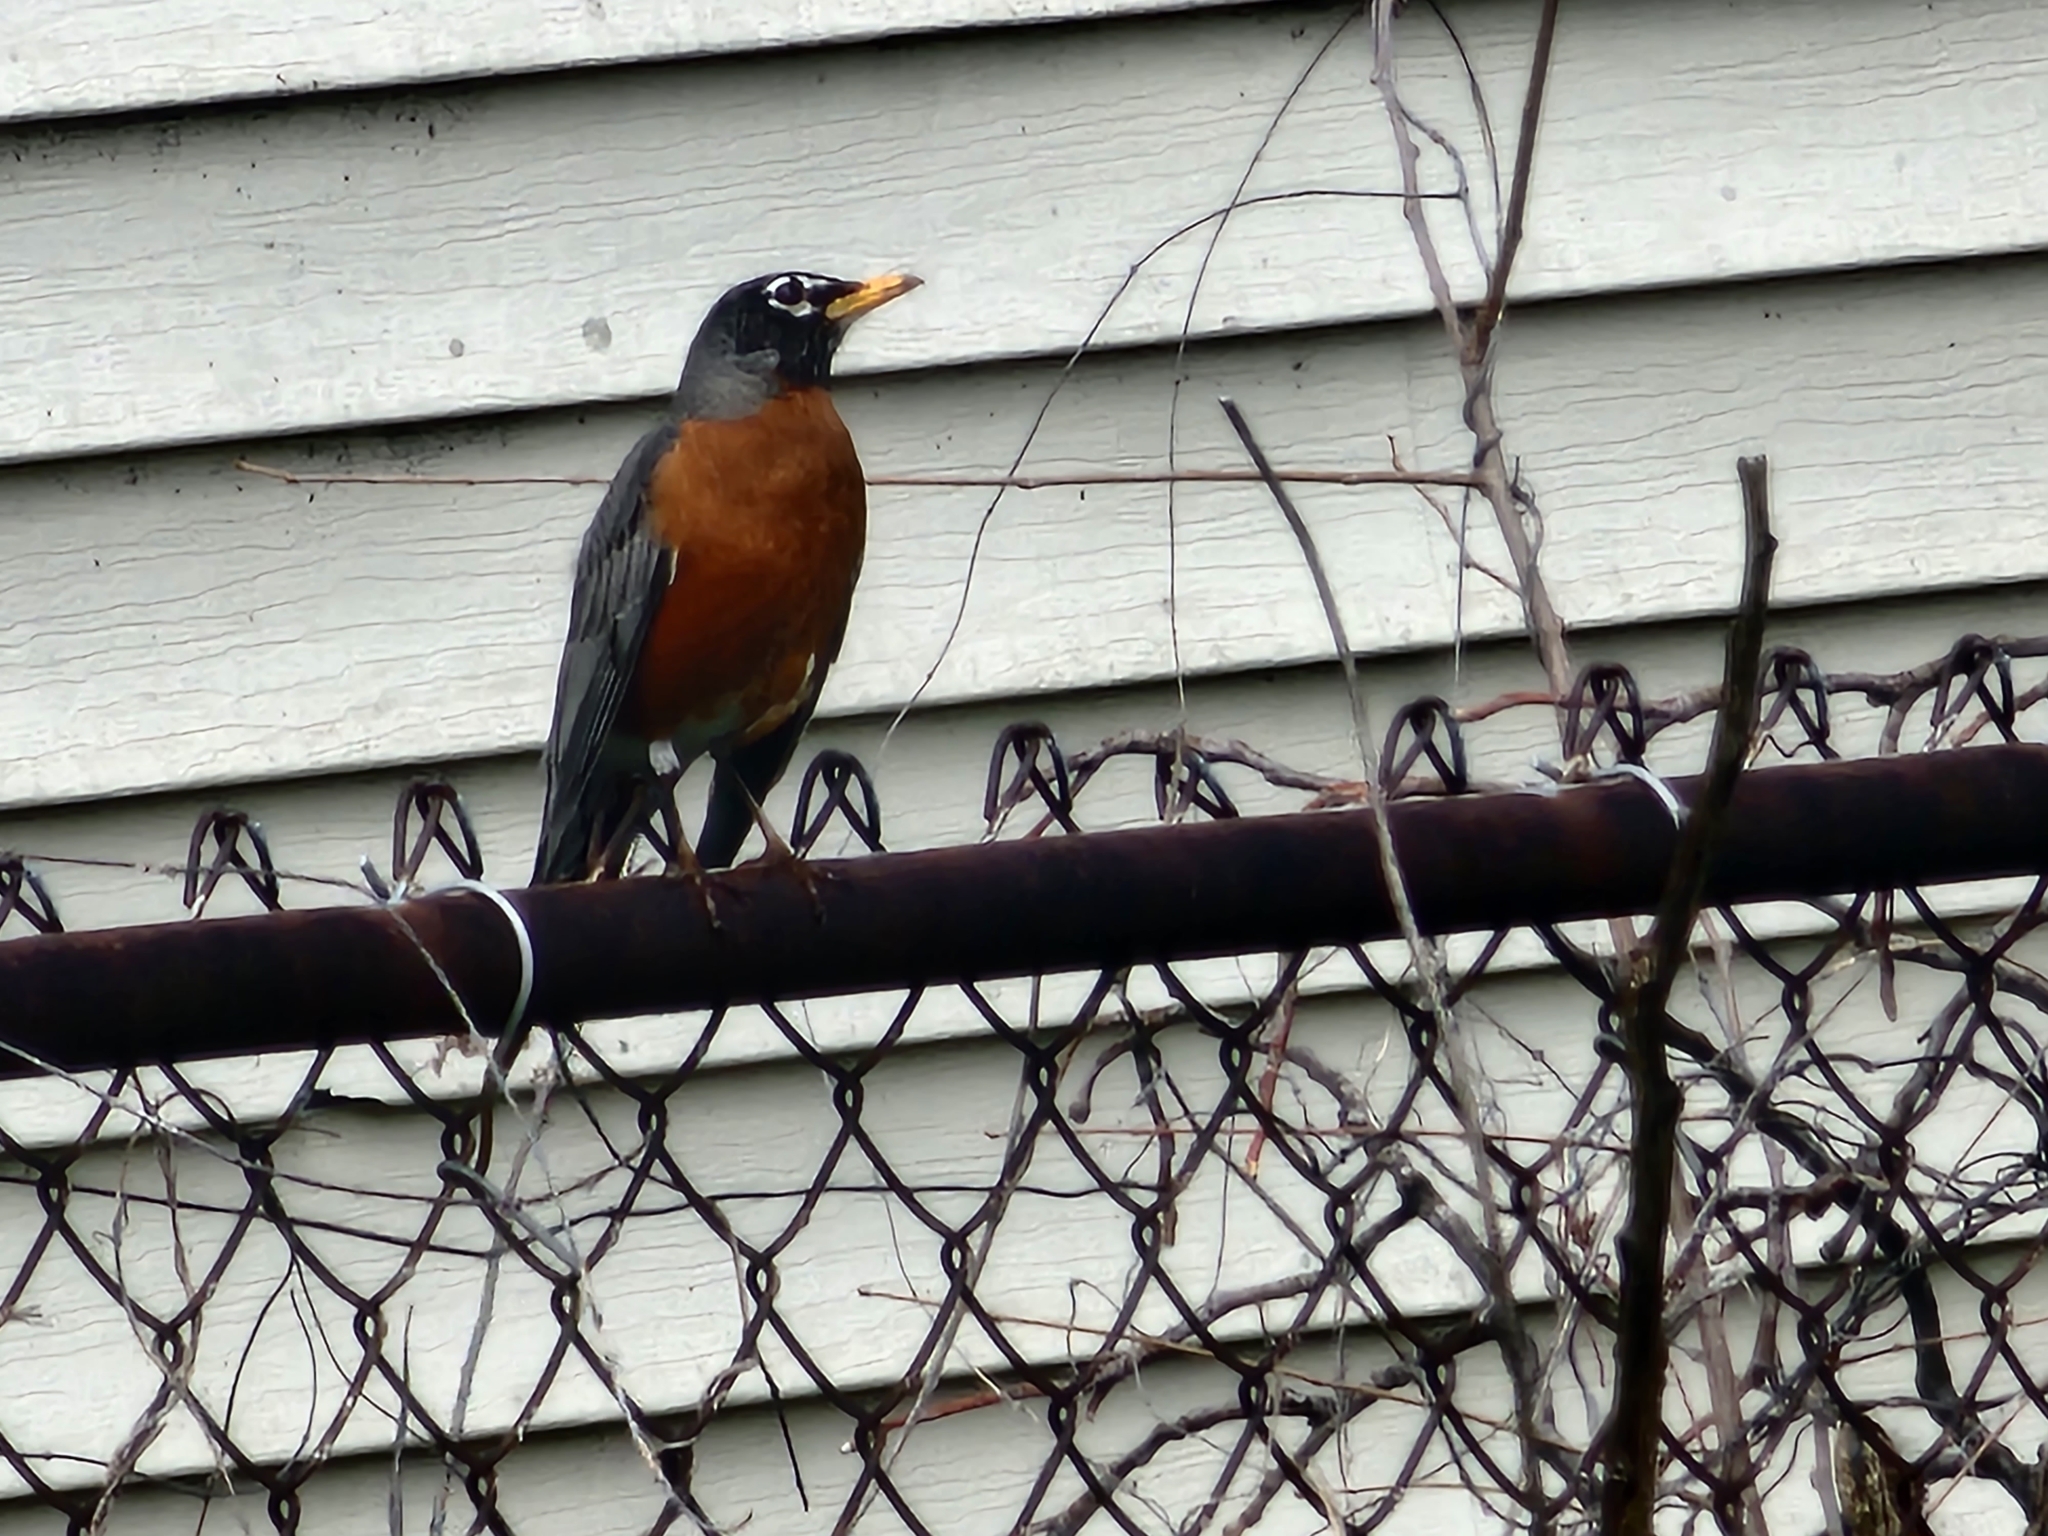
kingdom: Animalia
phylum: Chordata
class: Aves
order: Passeriformes
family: Turdidae
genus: Turdus
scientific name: Turdus migratorius
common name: American robin
